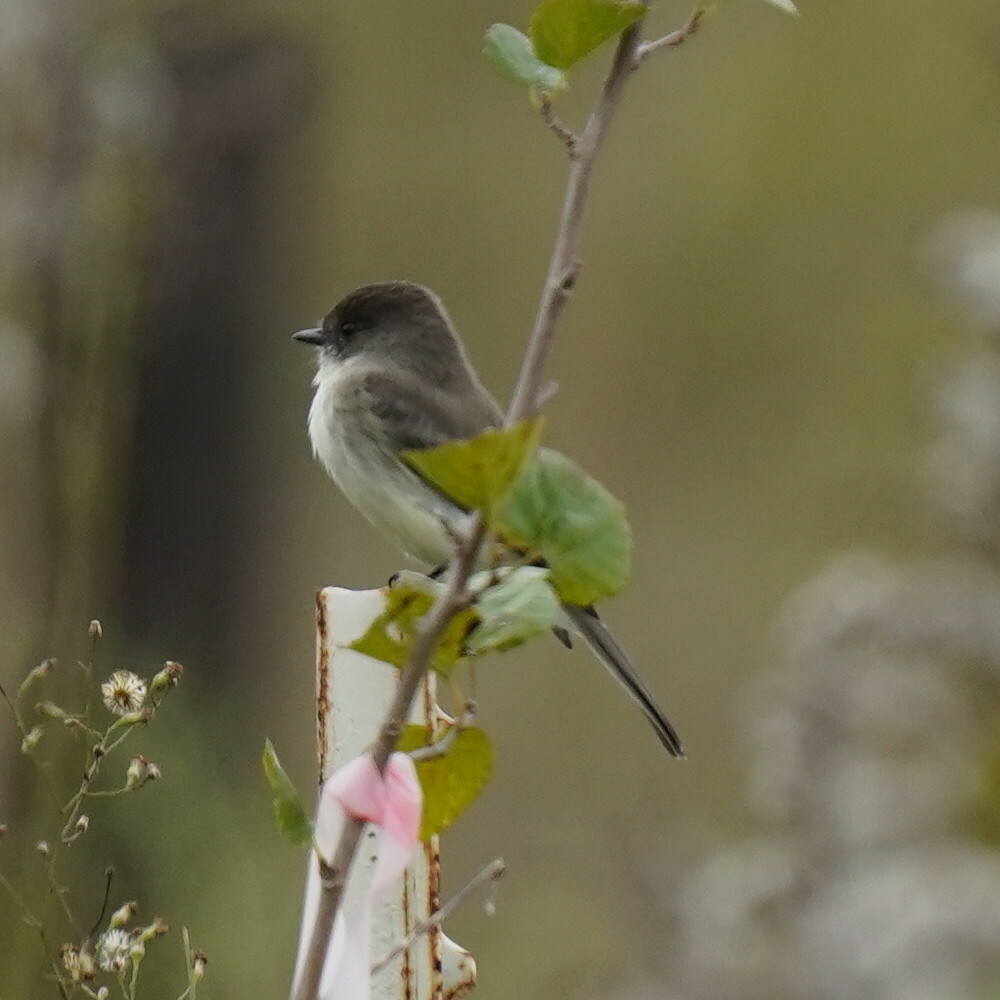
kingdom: Animalia
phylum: Chordata
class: Aves
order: Passeriformes
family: Tyrannidae
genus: Sayornis
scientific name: Sayornis phoebe
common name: Eastern phoebe
